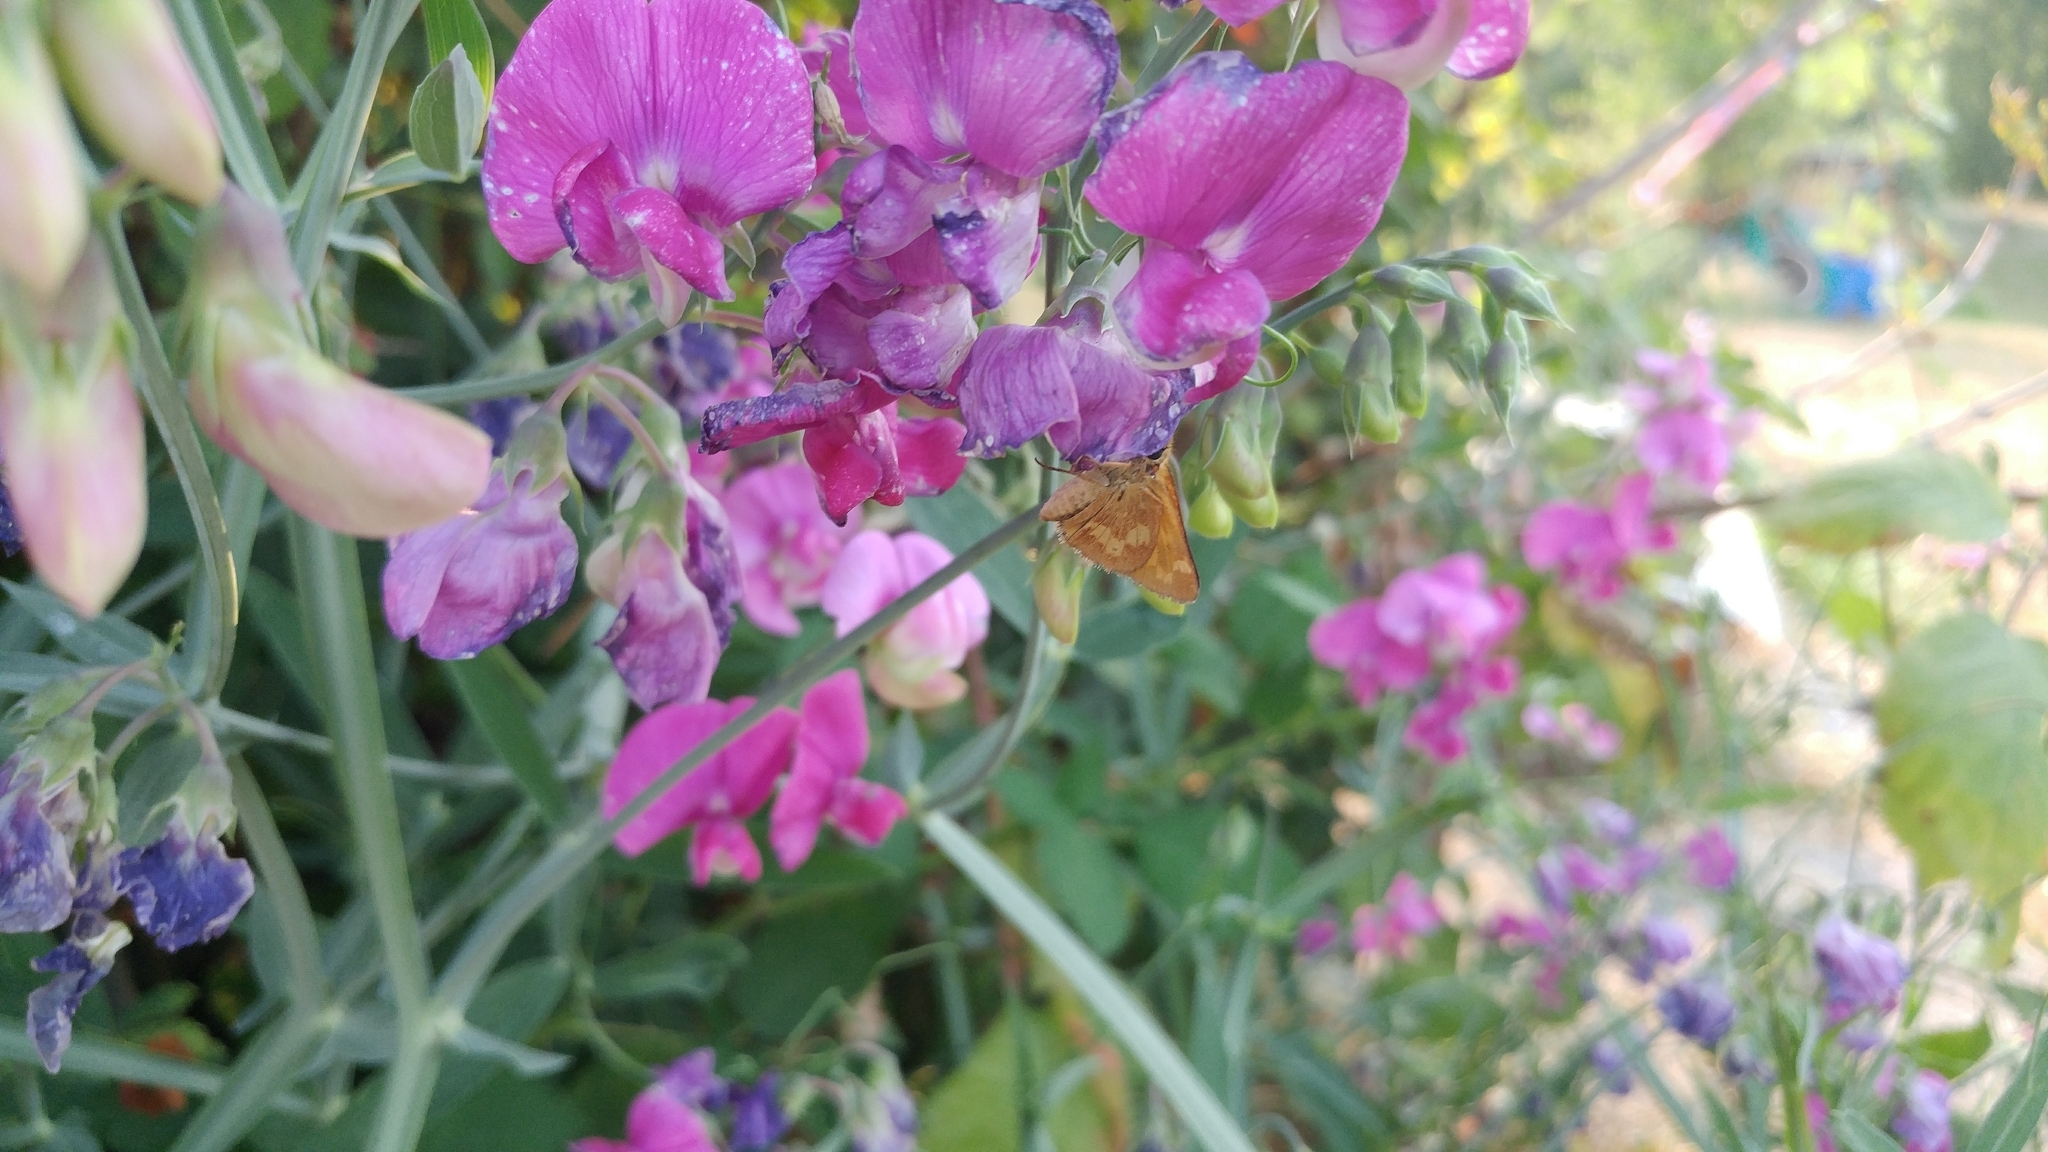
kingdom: Animalia
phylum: Arthropoda
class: Insecta
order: Lepidoptera
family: Hesperiidae
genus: Ochlodes
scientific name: Ochlodes sylvanoides
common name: Woodland skipper
